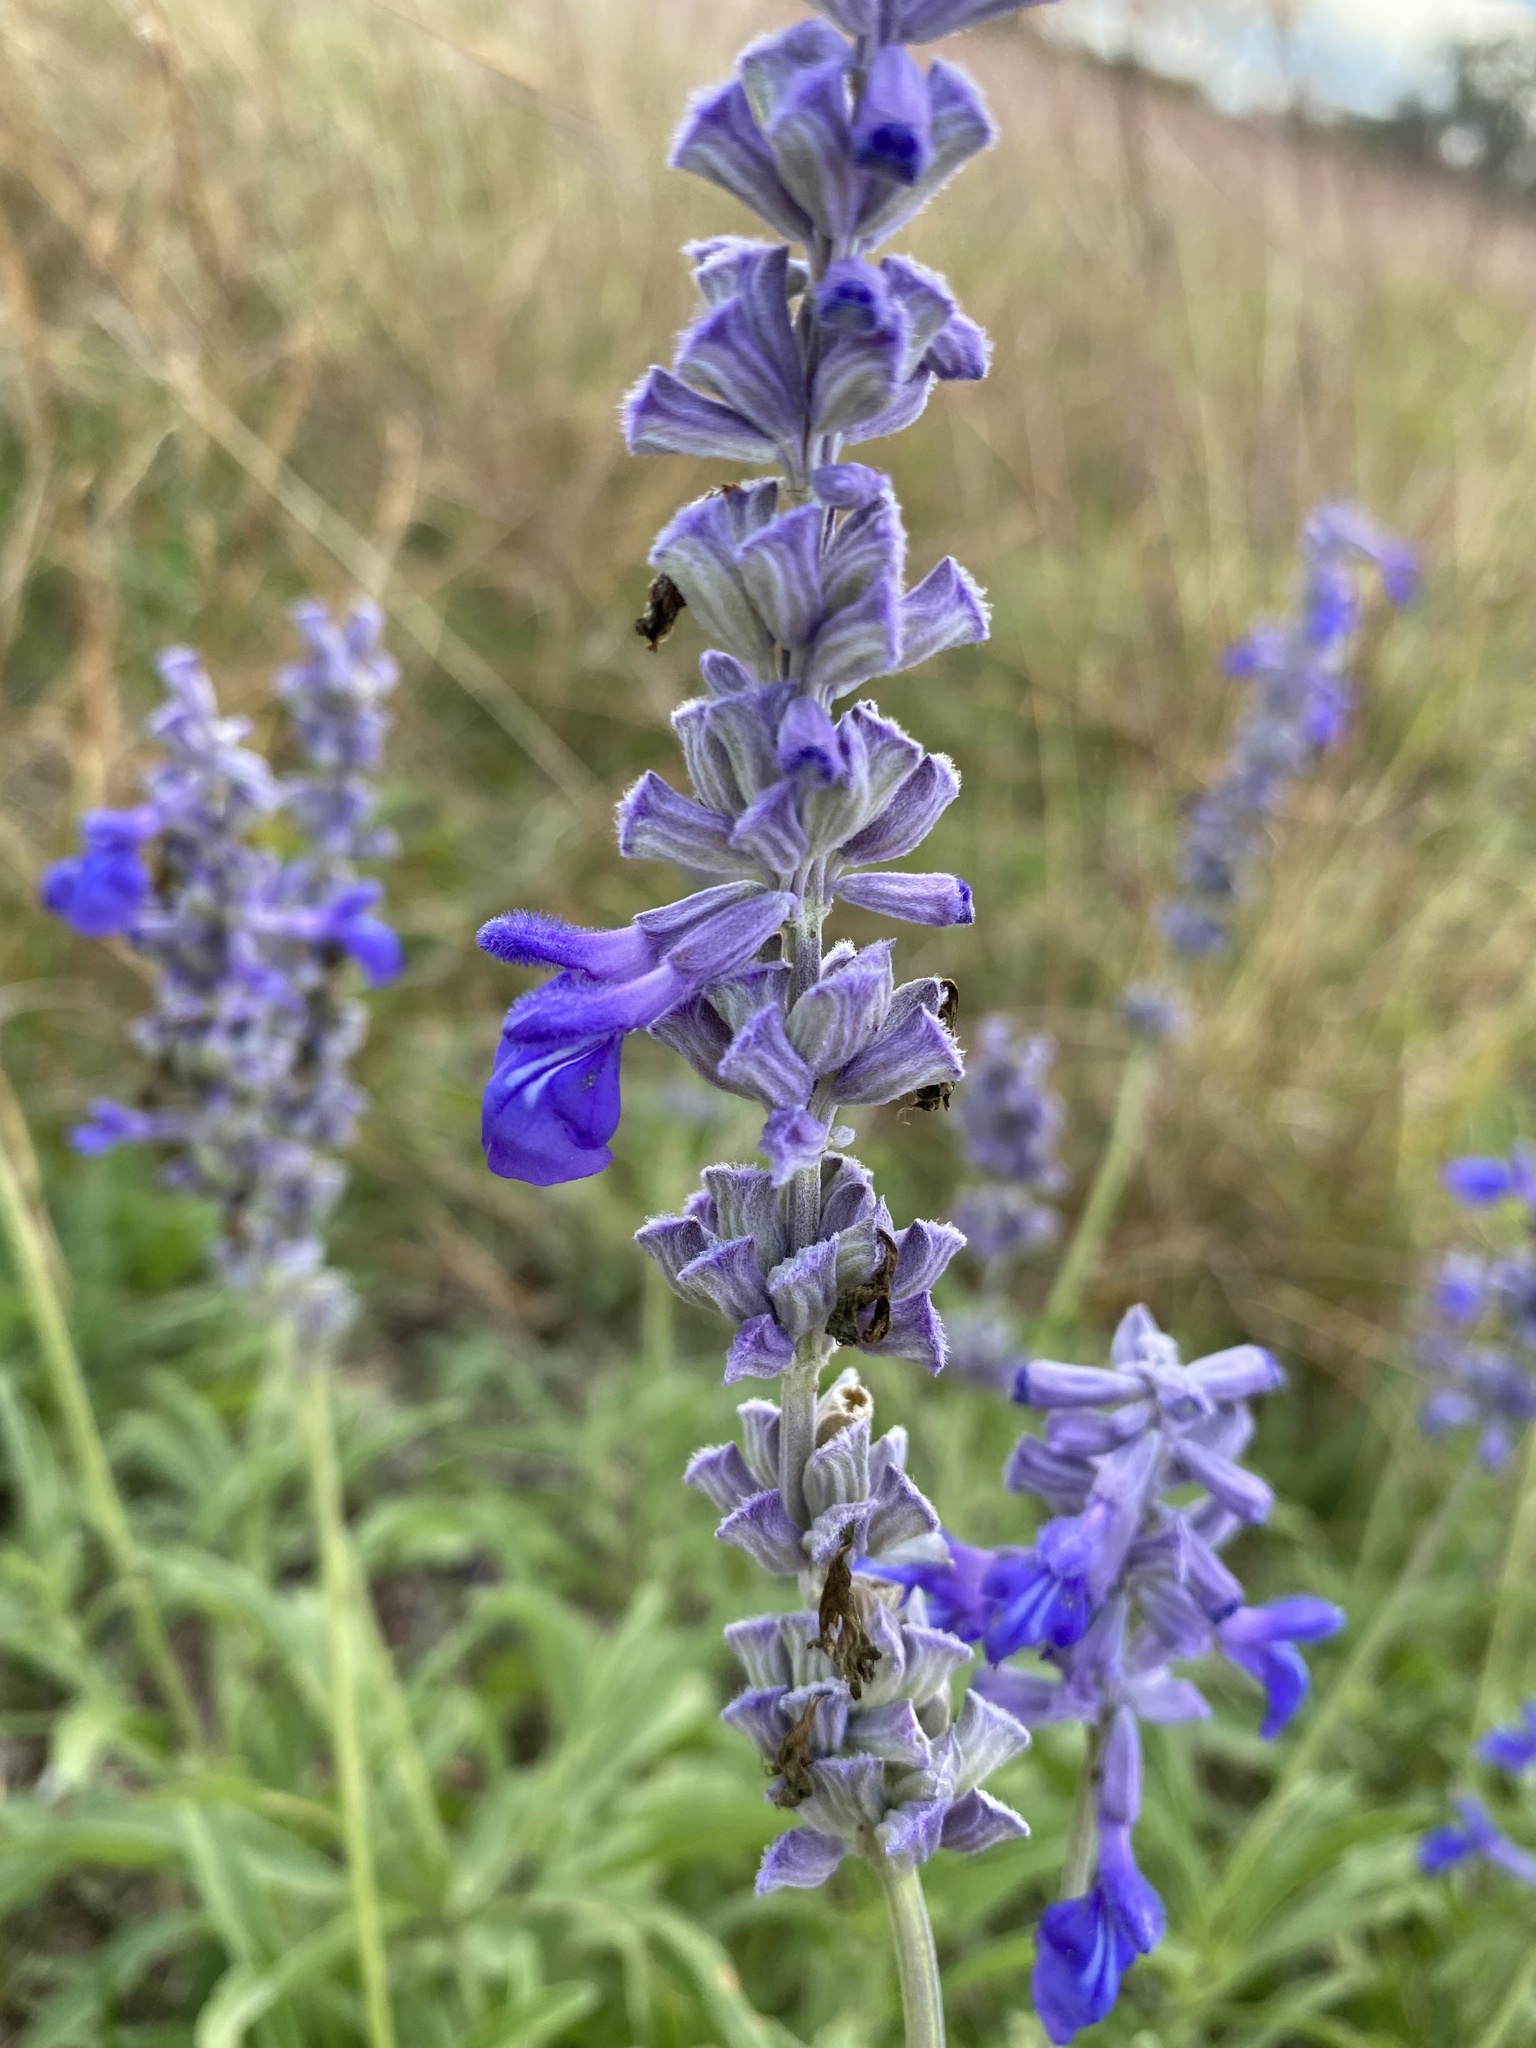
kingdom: Plantae
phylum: Tracheophyta
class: Magnoliopsida
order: Lamiales
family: Lamiaceae
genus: Salvia
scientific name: Salvia farinacea
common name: Mealy sage
